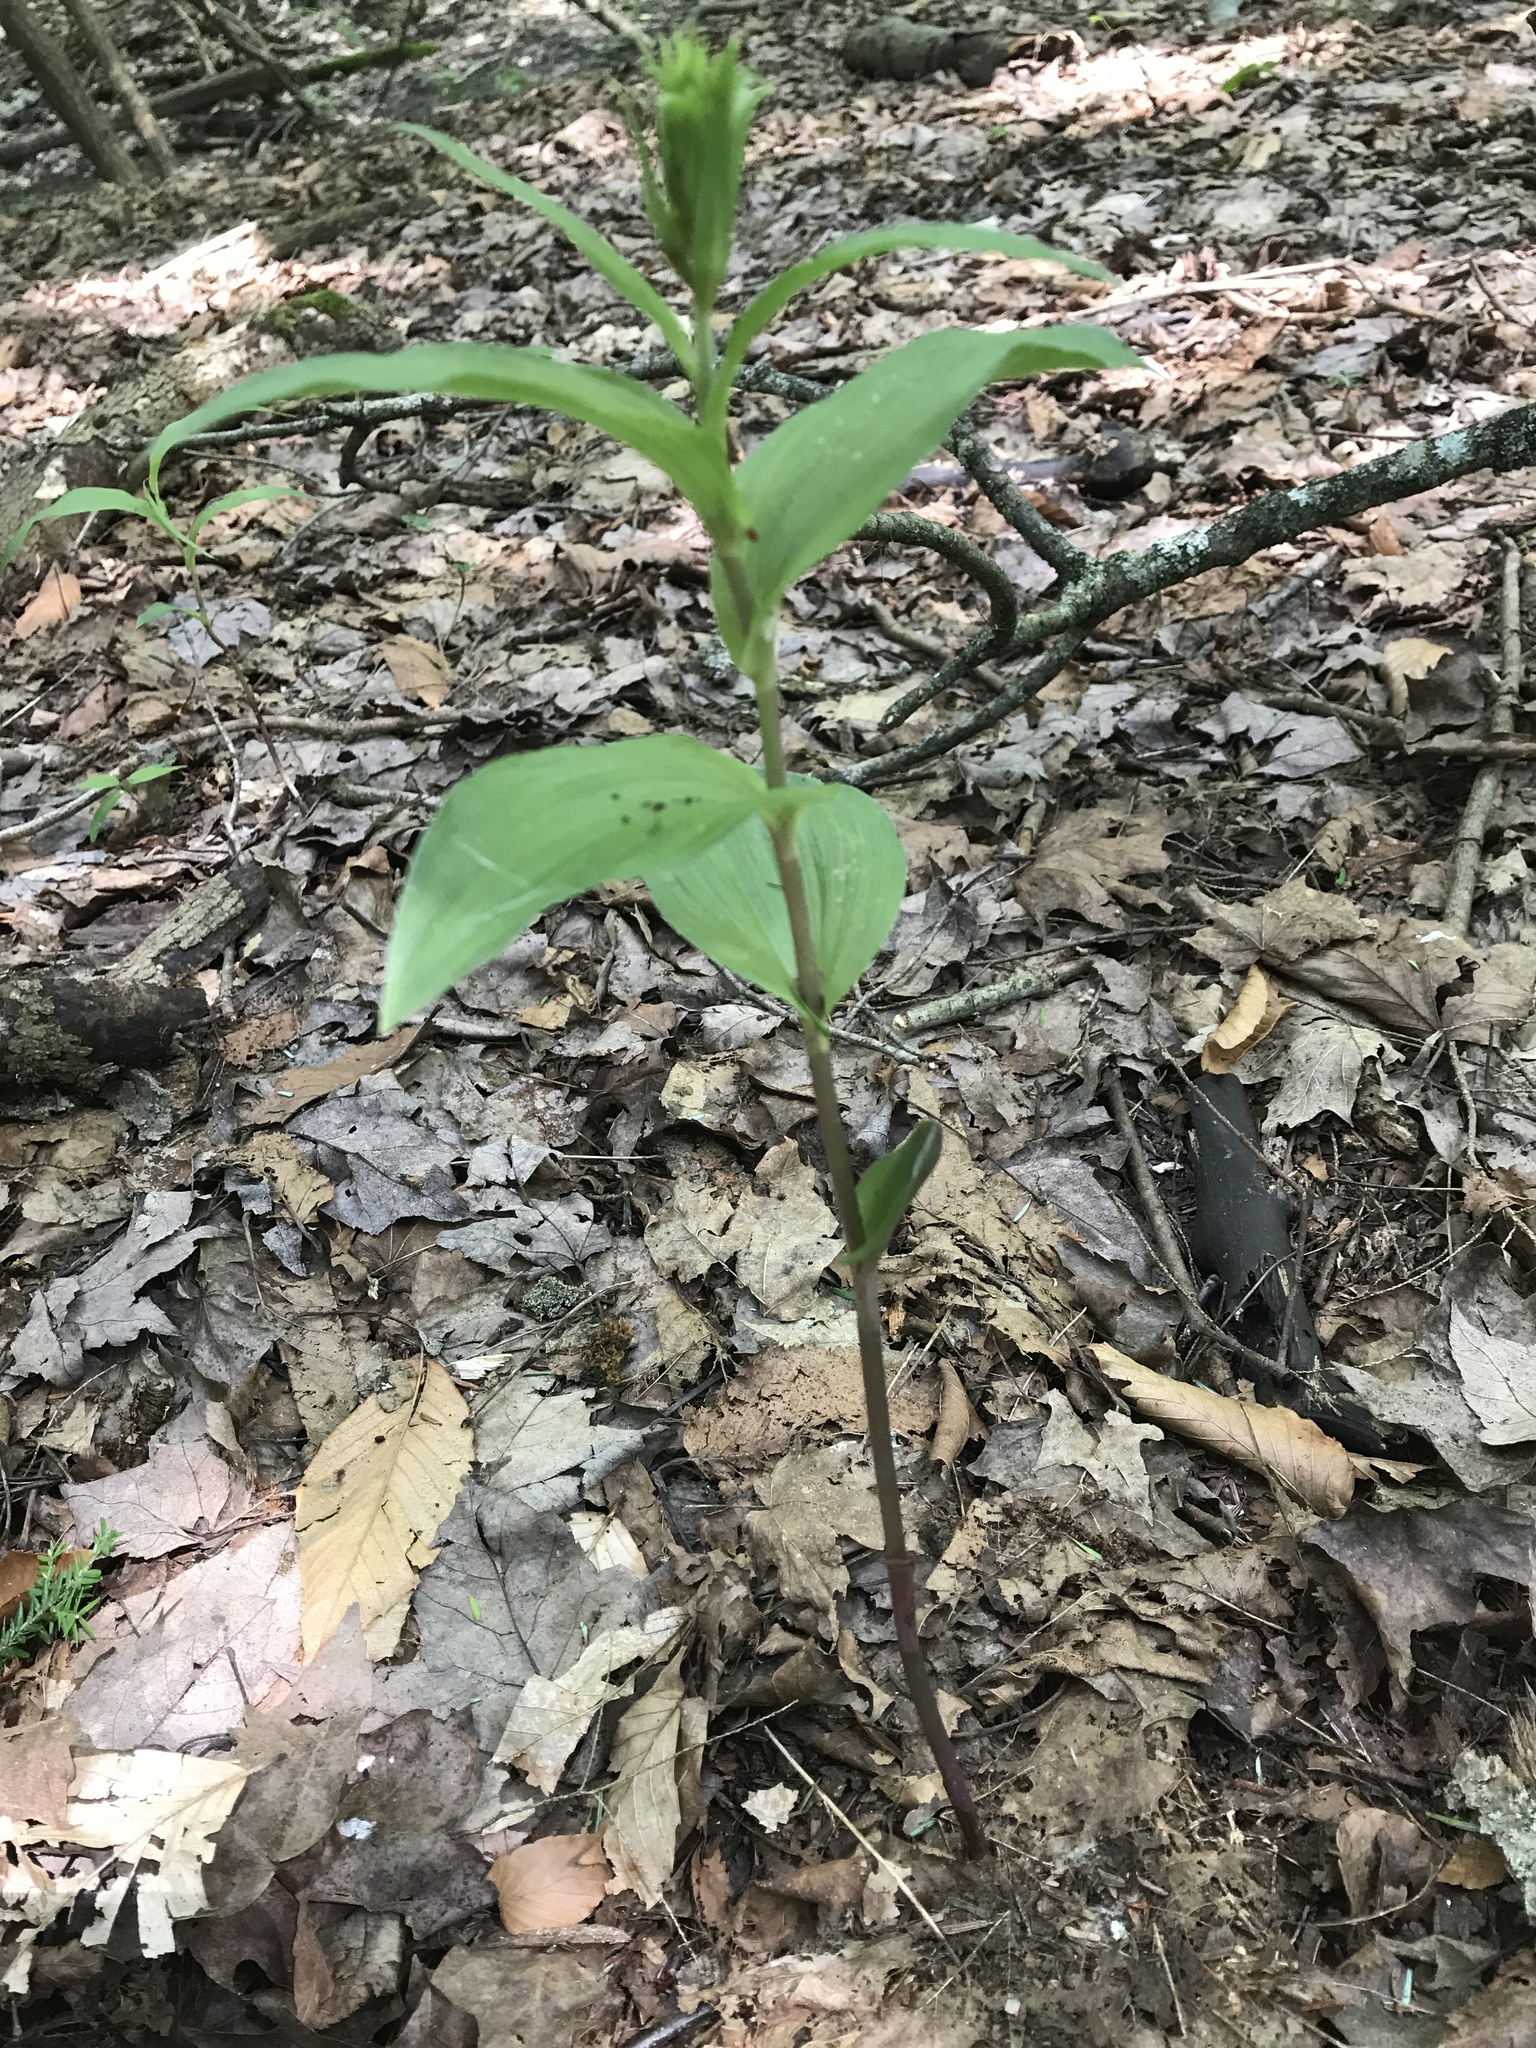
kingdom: Plantae
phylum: Tracheophyta
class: Liliopsida
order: Asparagales
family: Orchidaceae
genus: Epipactis
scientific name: Epipactis helleborine
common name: Broad-leaved helleborine
